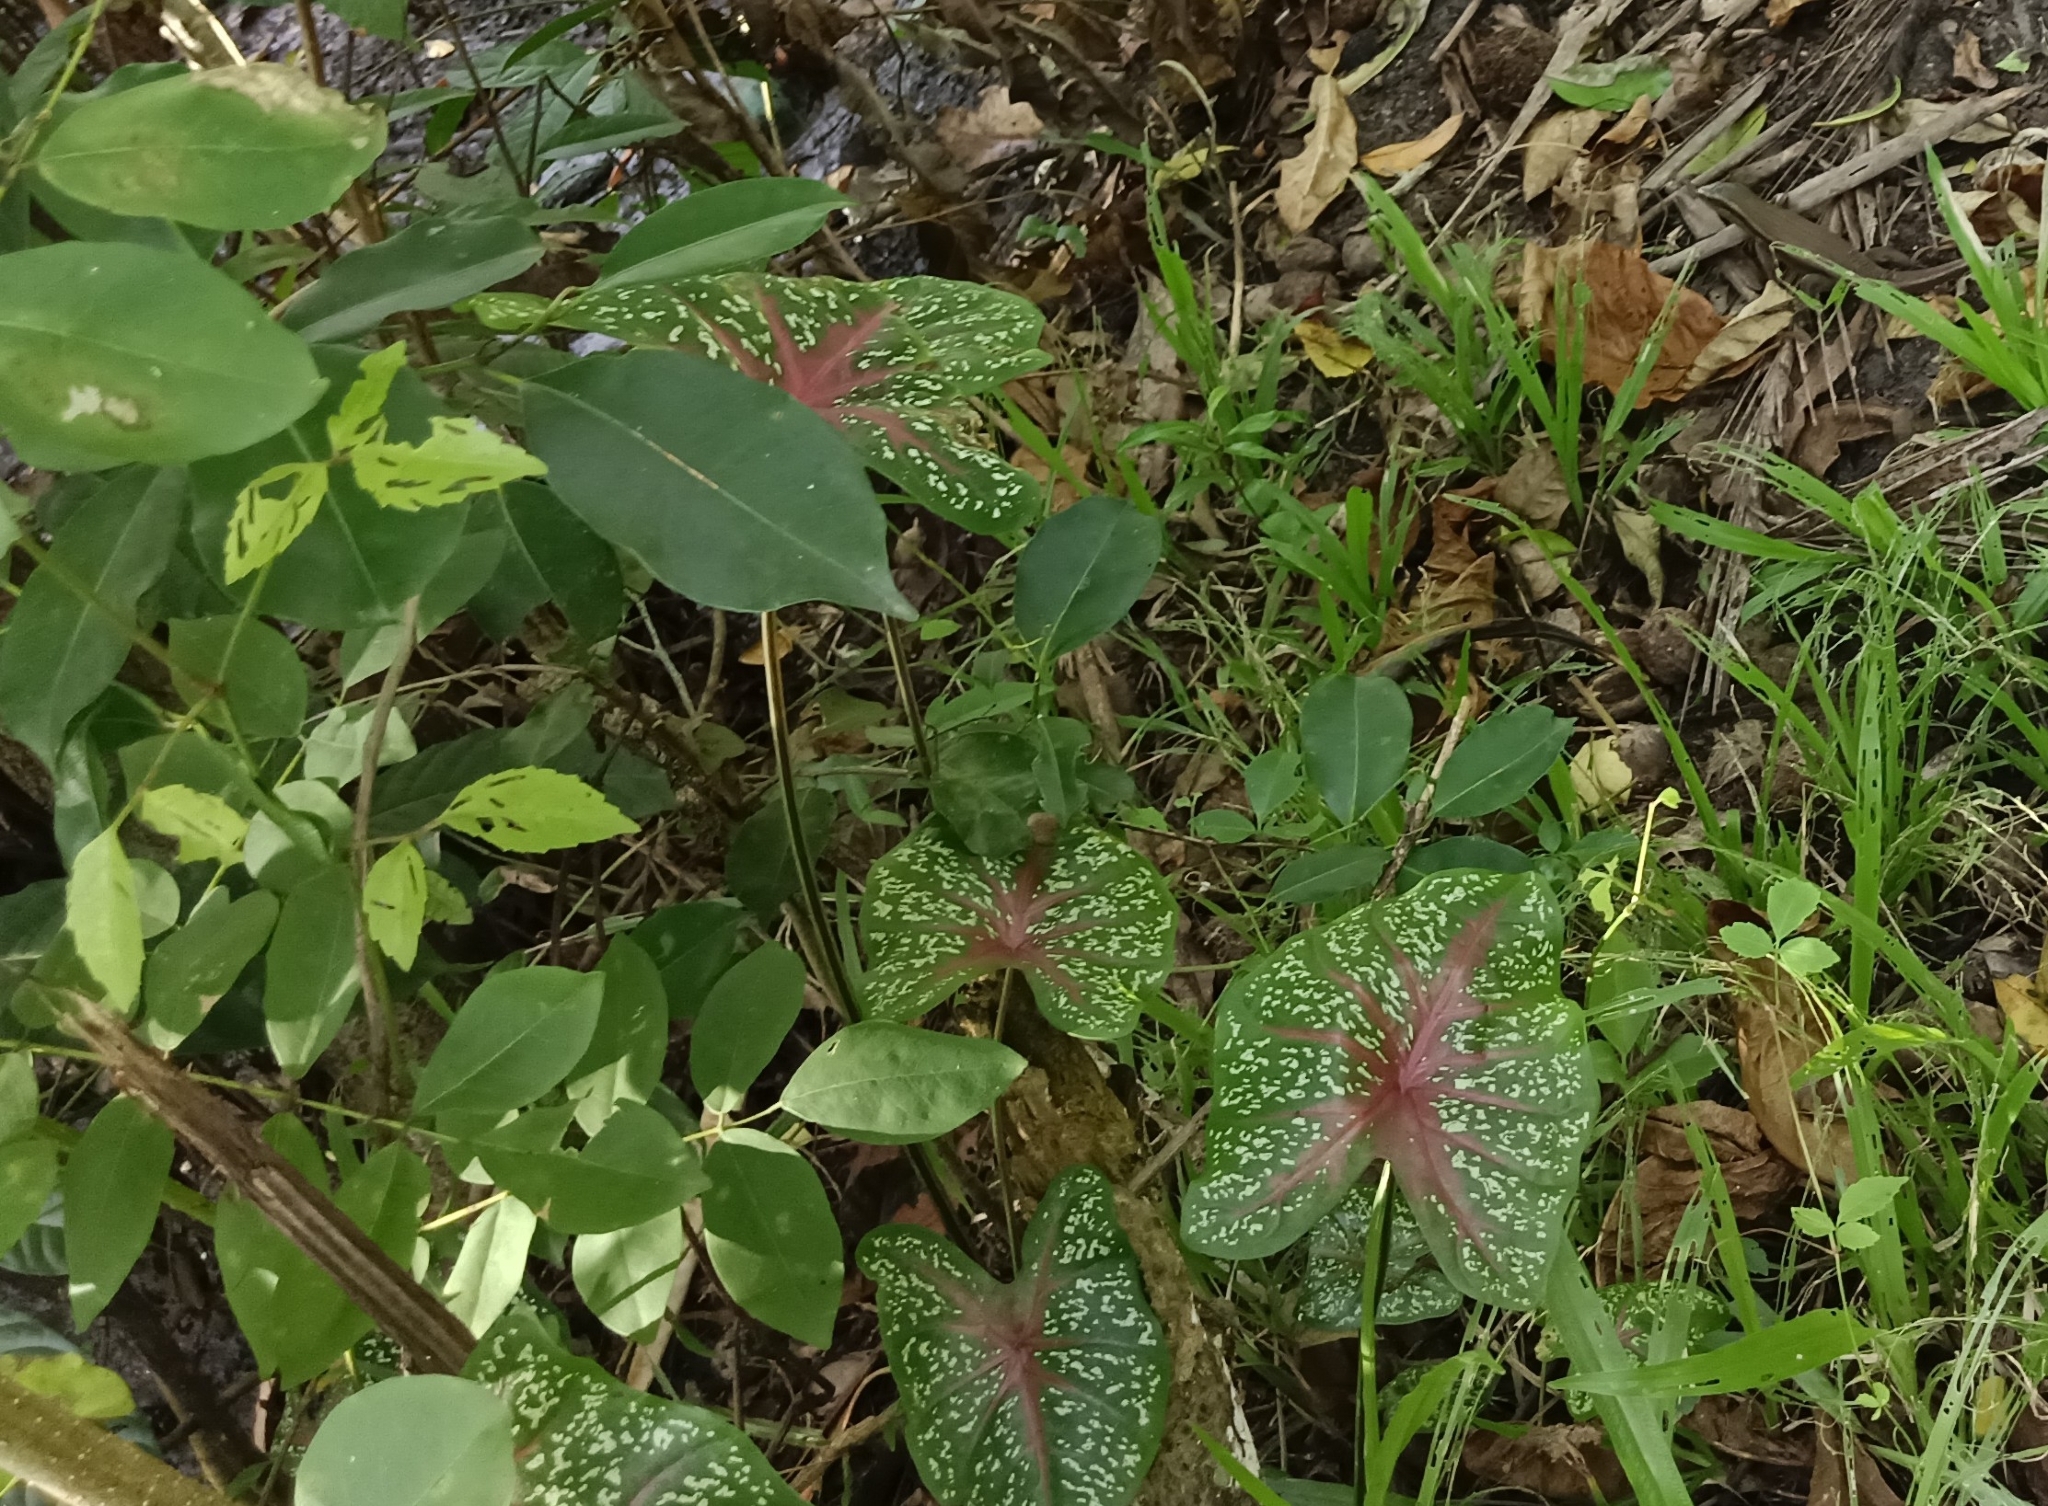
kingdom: Plantae
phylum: Tracheophyta
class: Liliopsida
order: Alismatales
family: Araceae
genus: Caladium
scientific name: Caladium bicolor
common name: Artist's pallet
